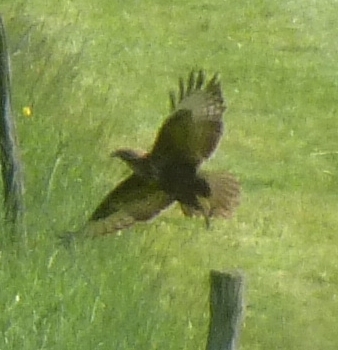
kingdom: Animalia
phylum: Chordata
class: Aves
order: Accipitriformes
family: Accipitridae
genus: Buteo
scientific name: Buteo buteo
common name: Common buzzard
